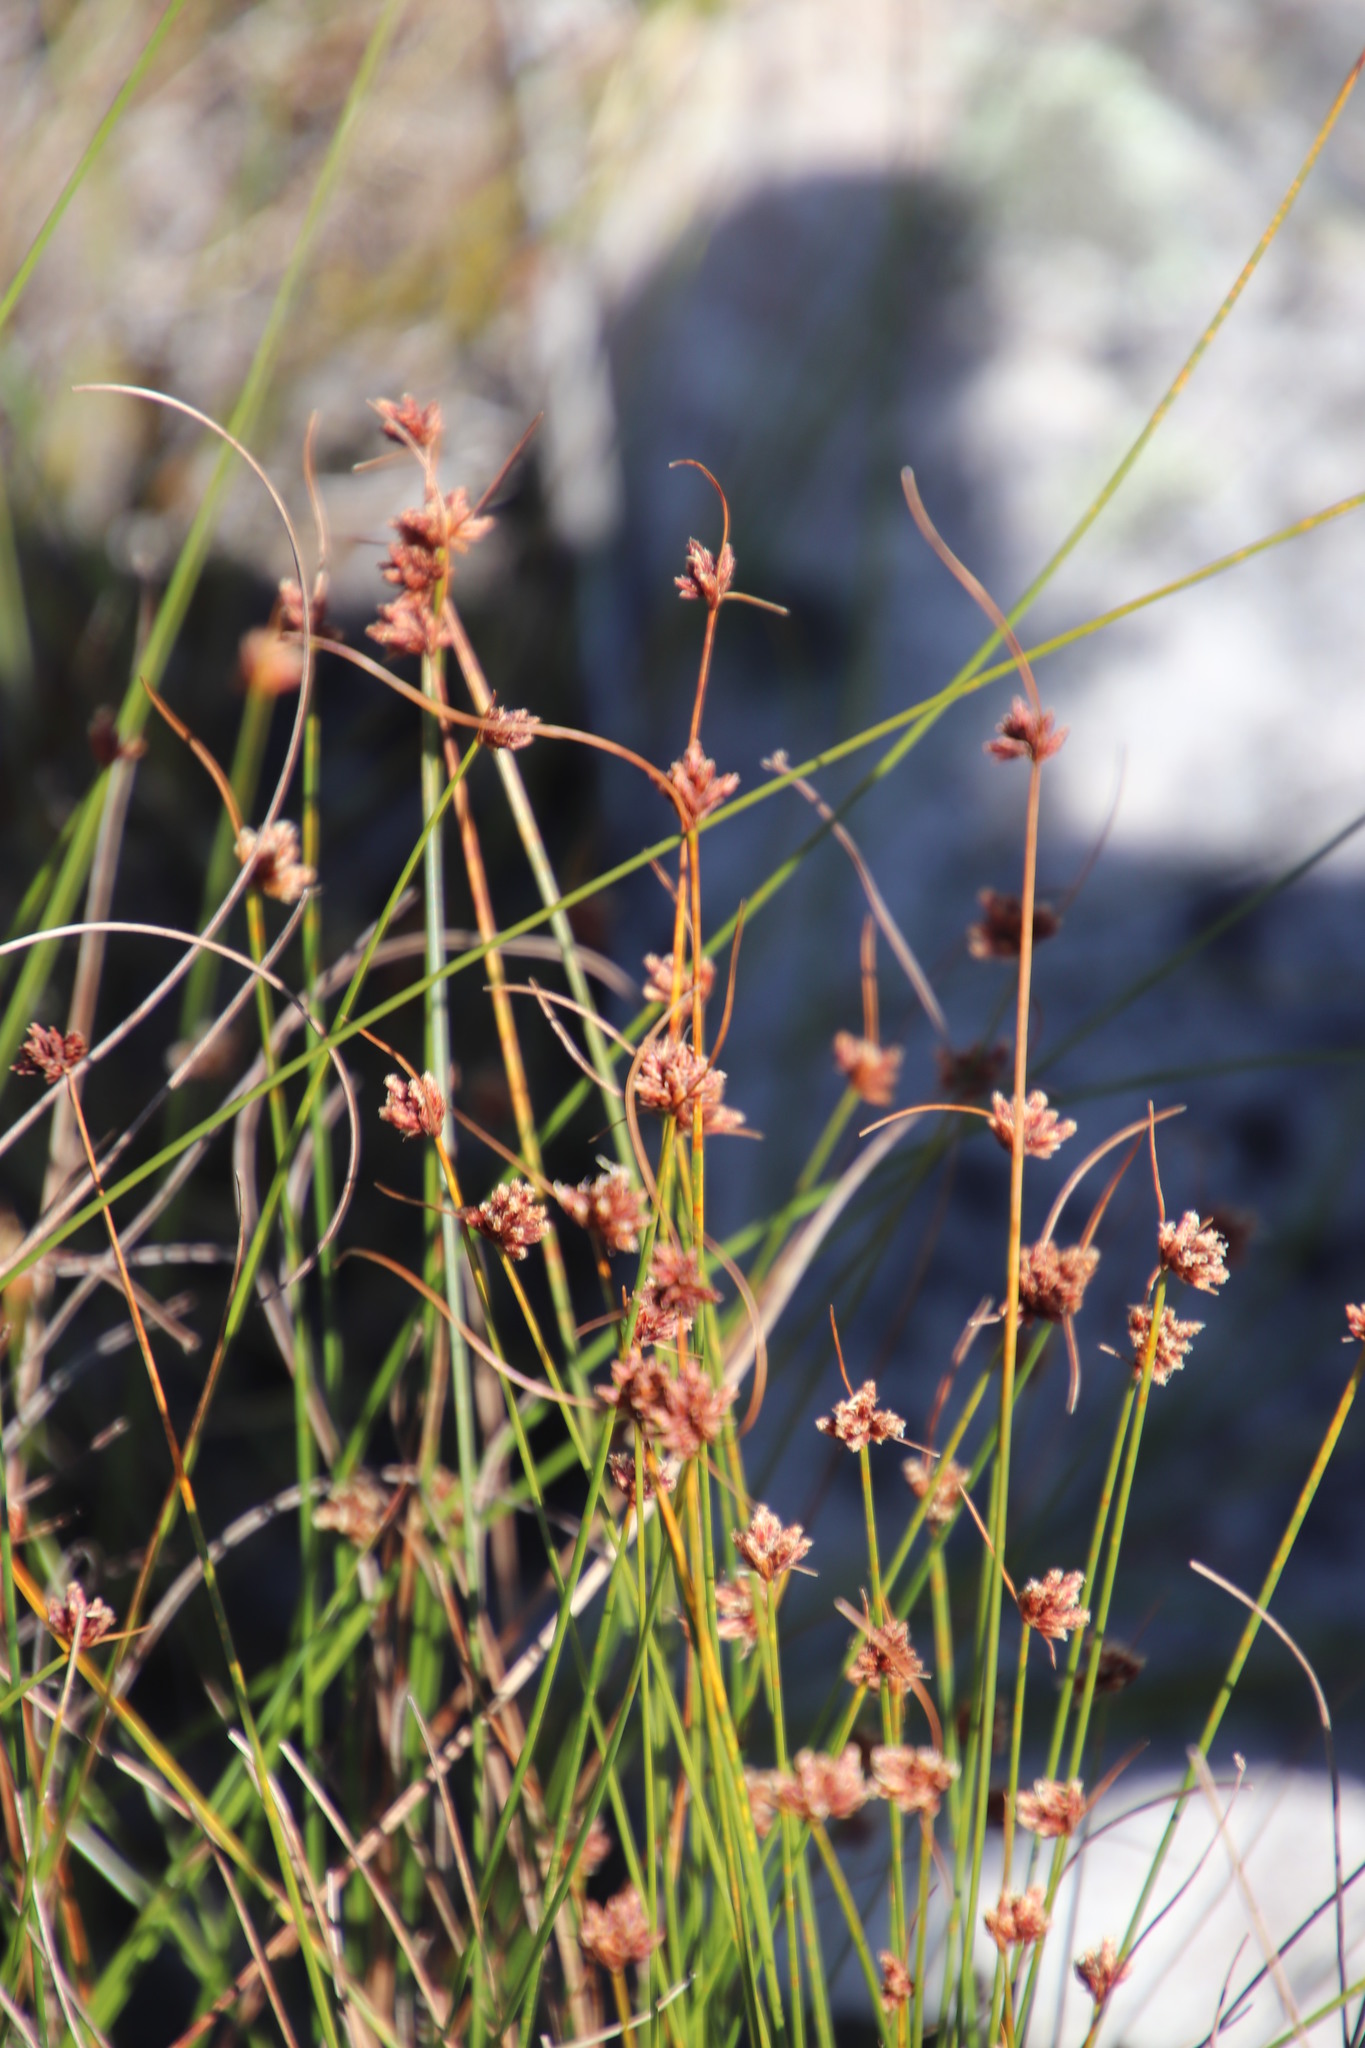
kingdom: Plantae
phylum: Tracheophyta
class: Liliopsida
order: Poales
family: Cyperaceae
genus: Ficinia
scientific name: Ficinia bulbosa
